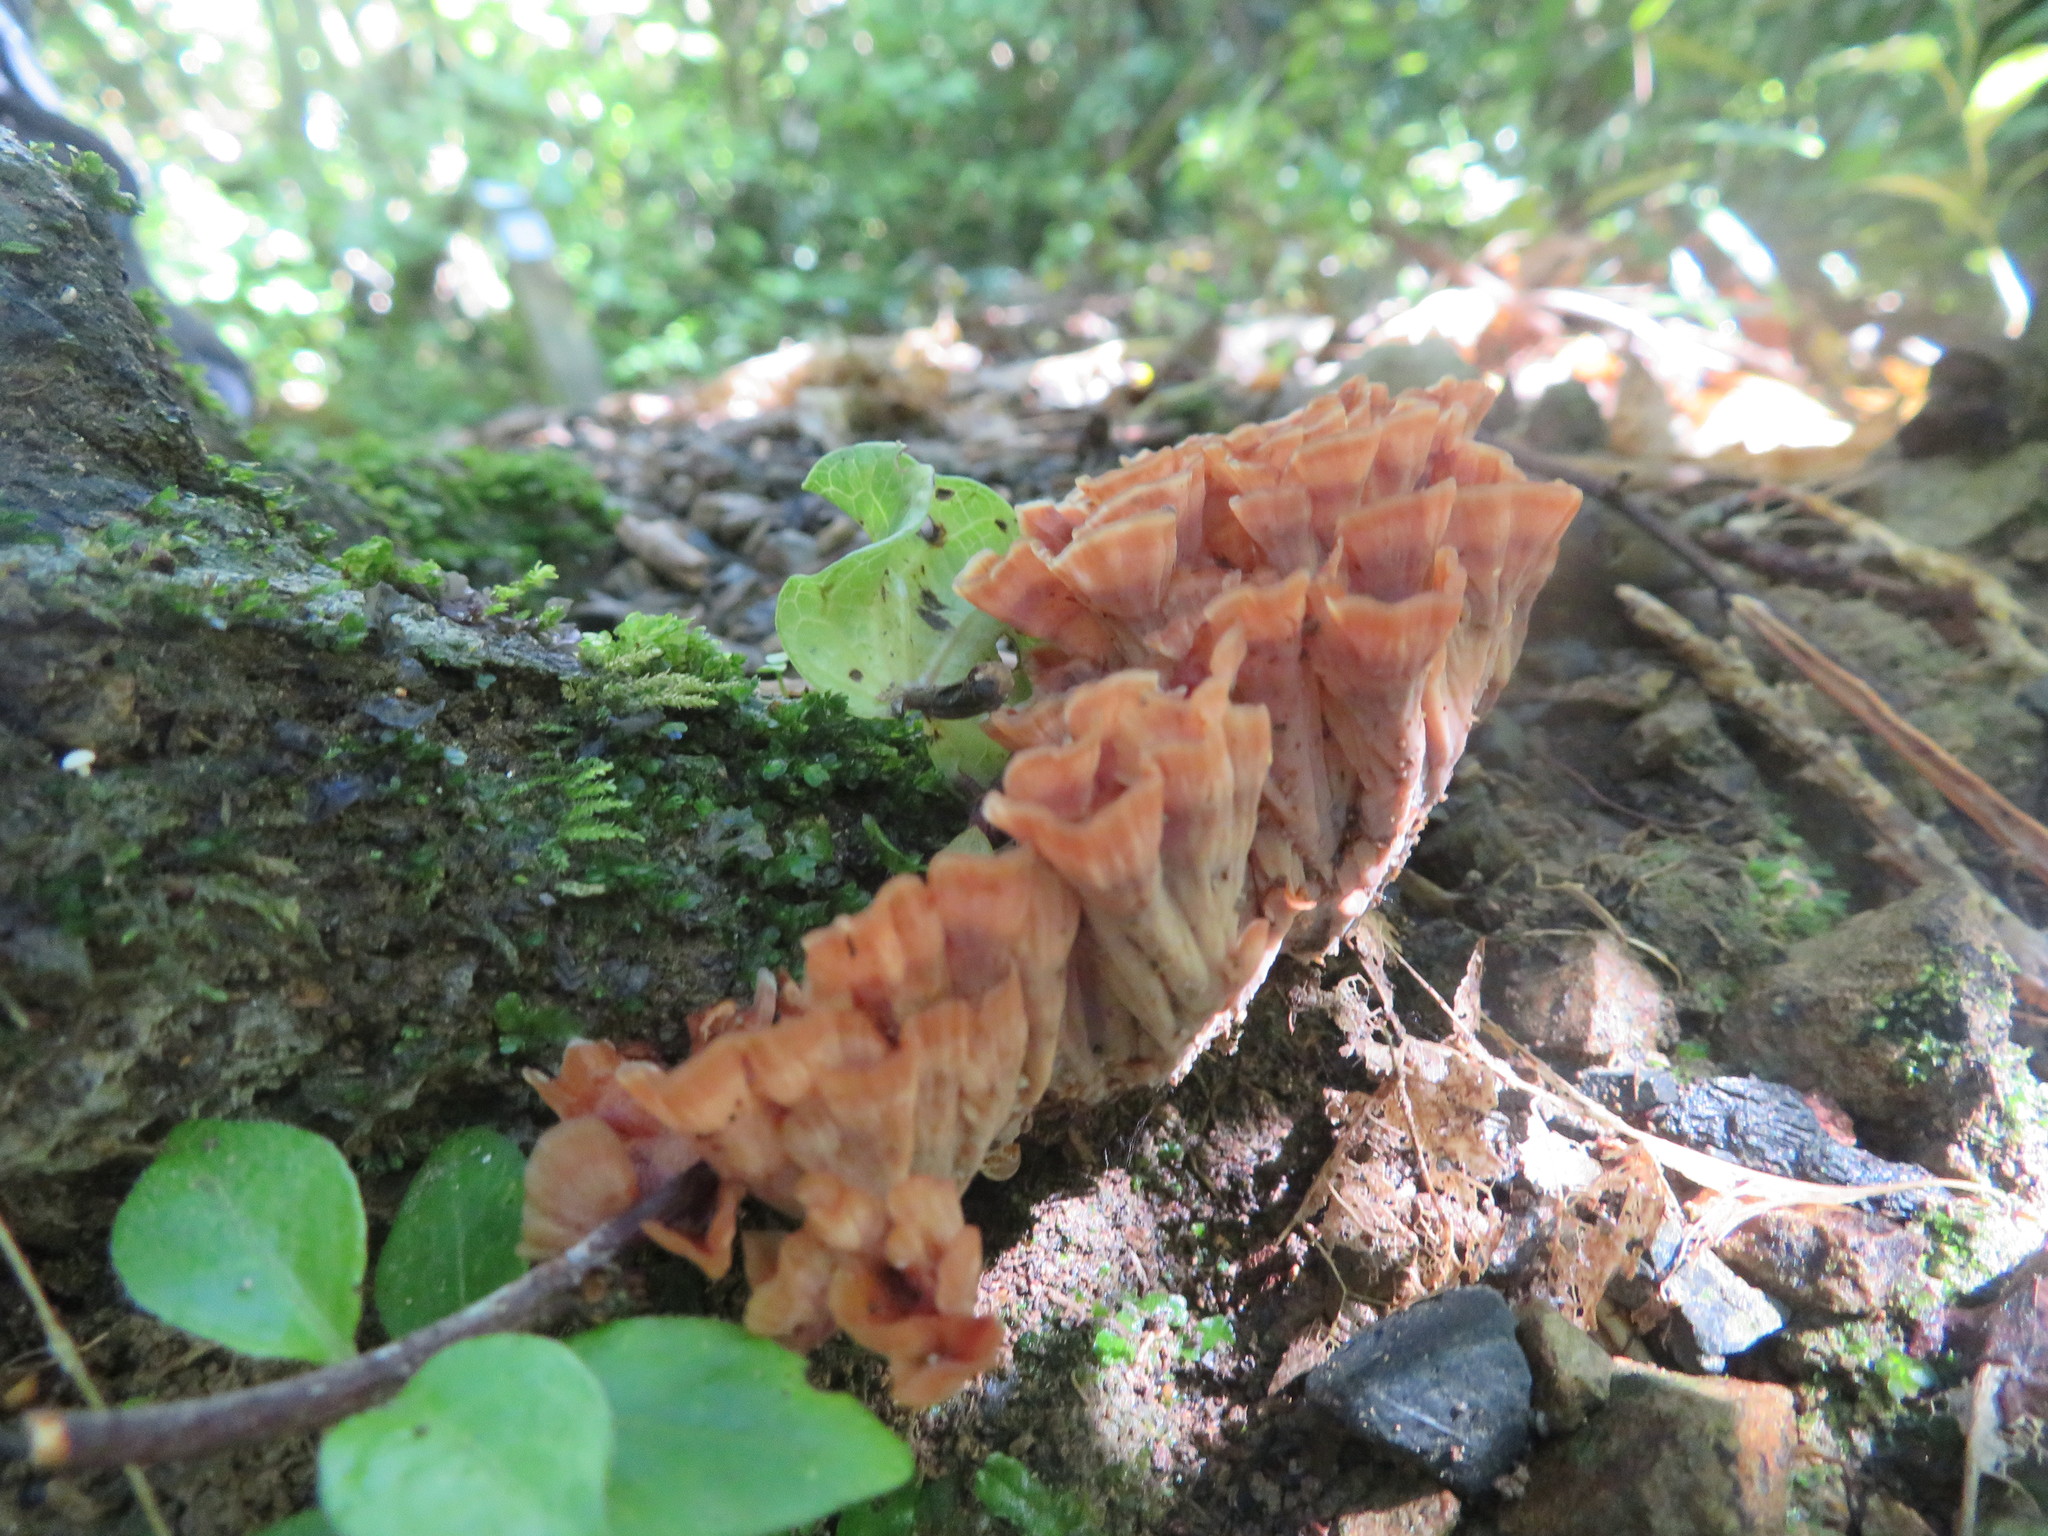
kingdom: Fungi
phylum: Basidiomycota
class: Agaricomycetes
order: Polyporales
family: Podoscyphaceae
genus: Podoscypha
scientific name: Podoscypha petalodes
